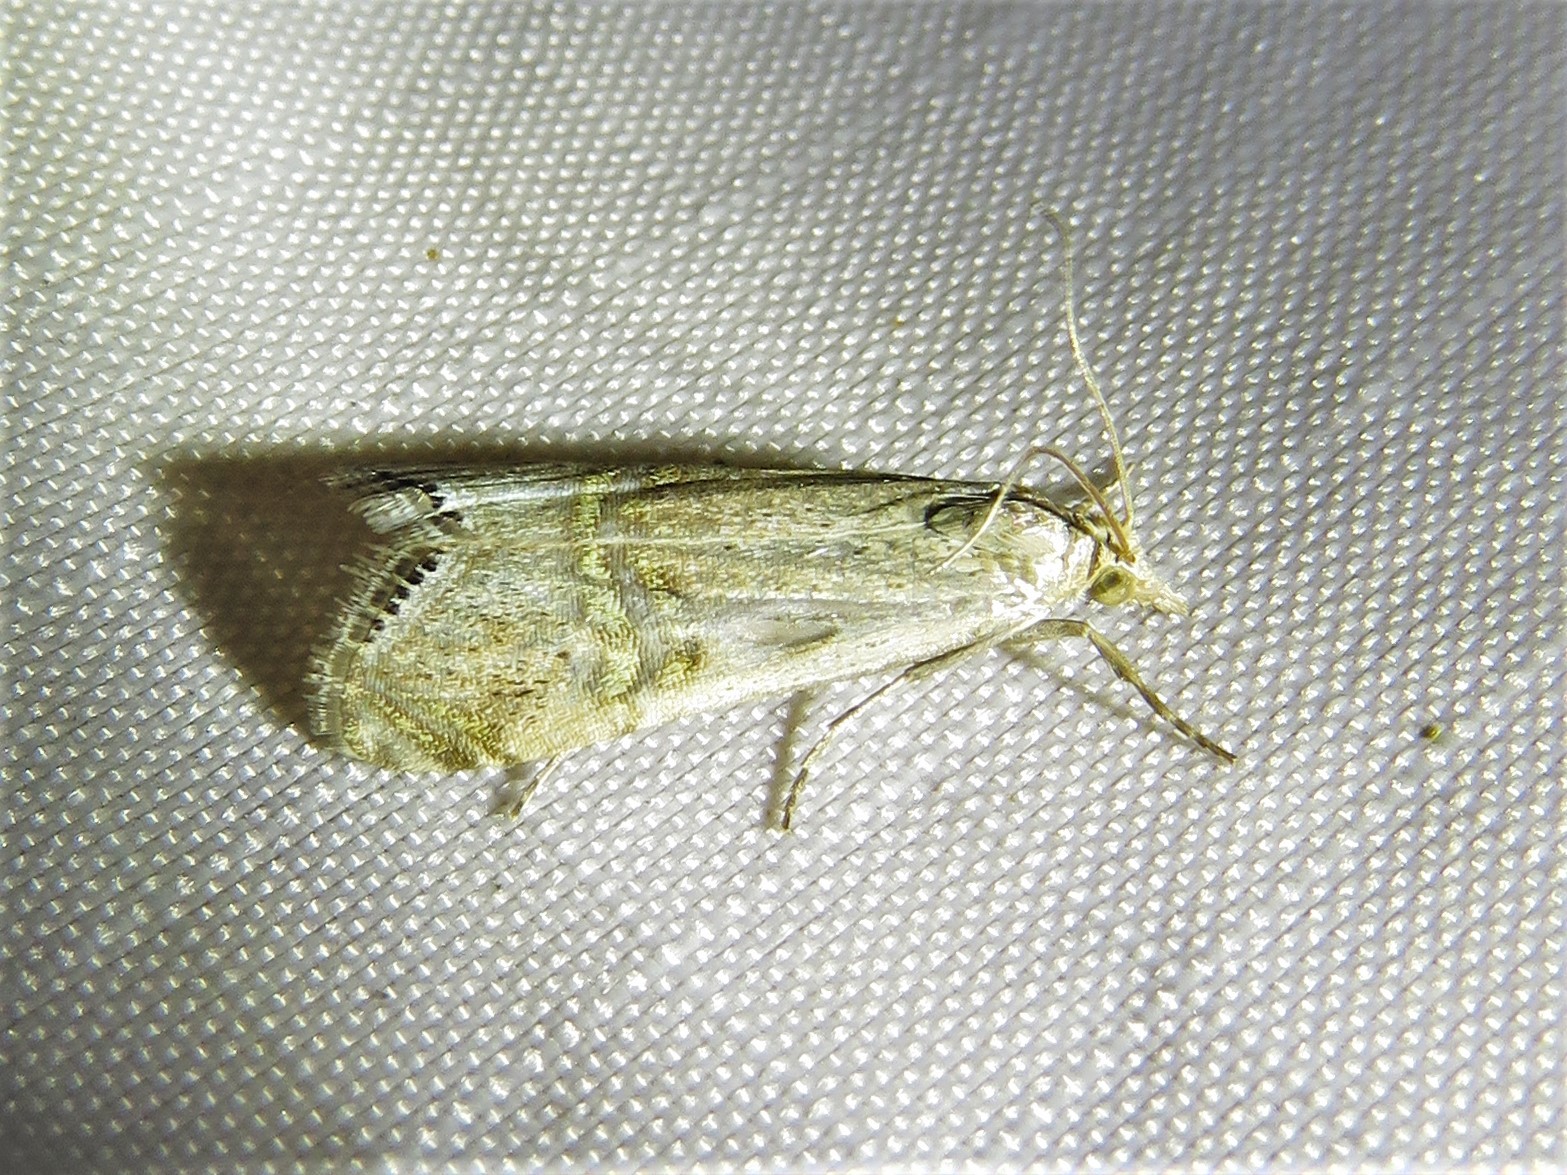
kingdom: Animalia
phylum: Arthropoda
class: Insecta
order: Lepidoptera
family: Crambidae
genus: Euchromius
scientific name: Euchromius ocellea
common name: Necklace veneer moth
